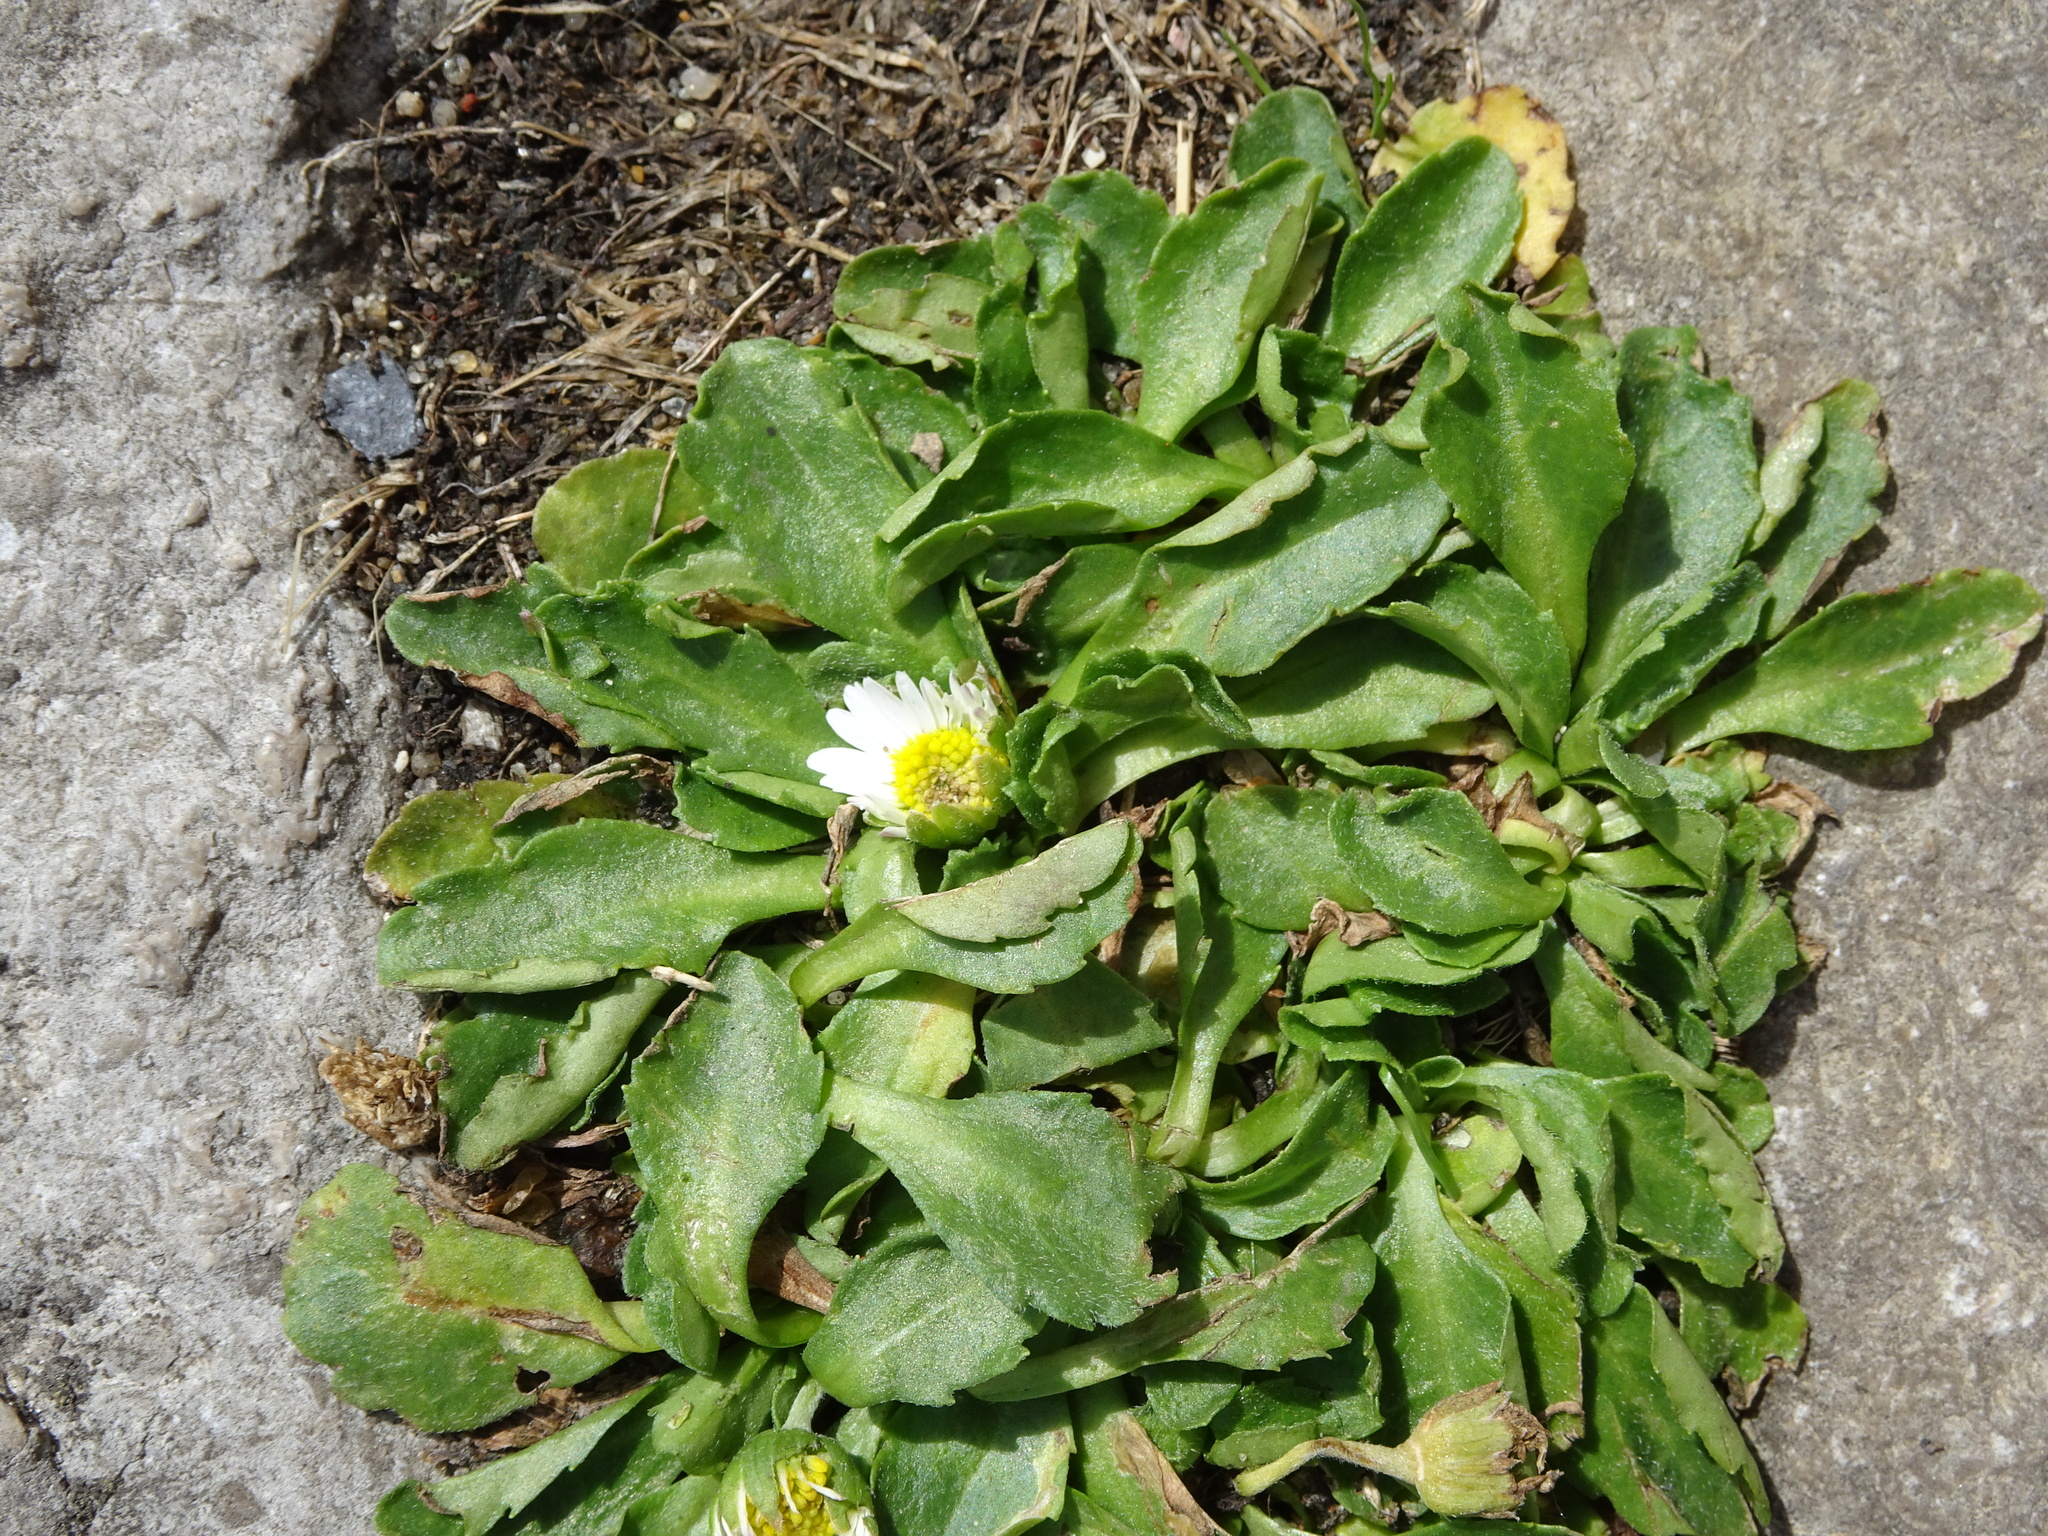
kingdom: Plantae
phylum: Tracheophyta
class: Magnoliopsida
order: Asterales
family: Asteraceae
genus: Bellis
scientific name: Bellis perennis
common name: Lawndaisy
